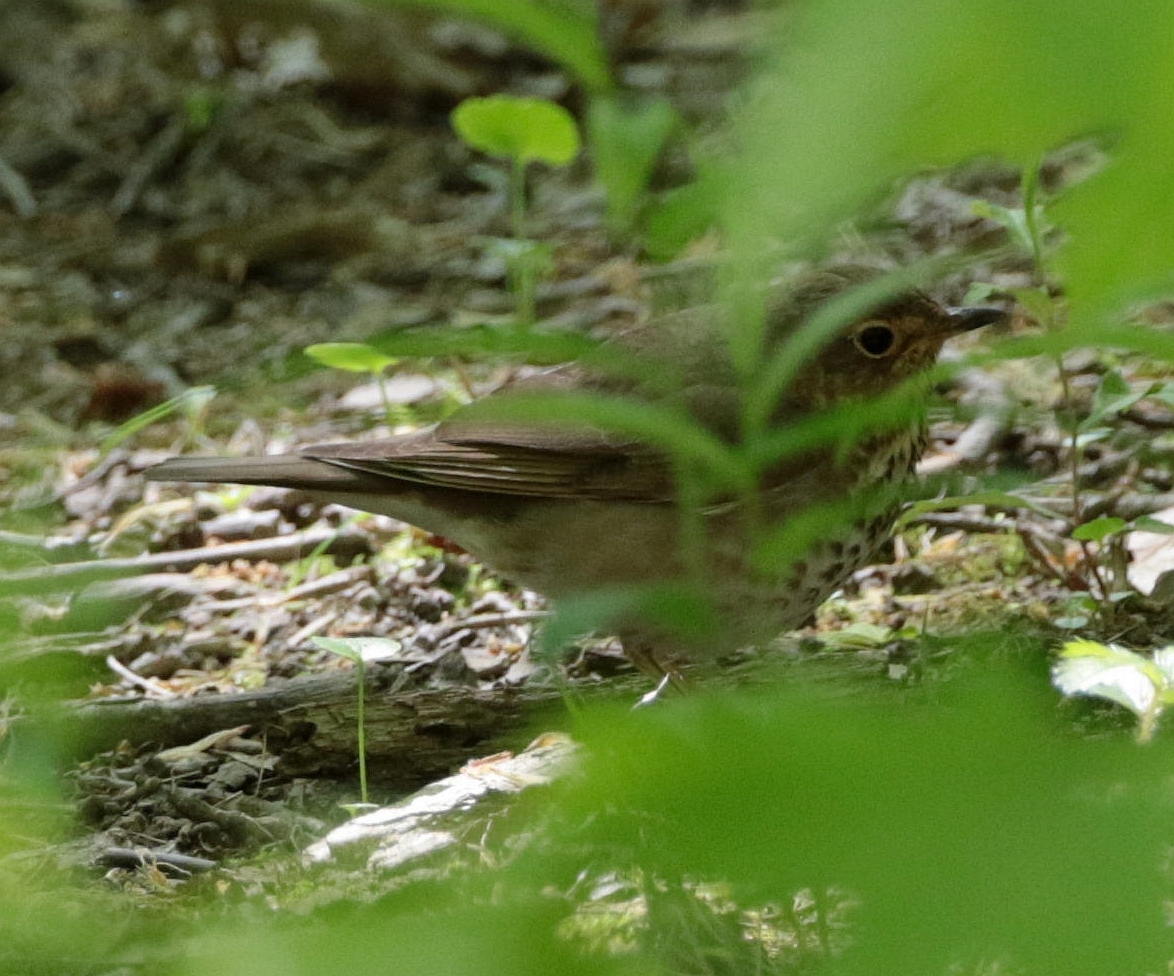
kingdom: Animalia
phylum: Chordata
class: Aves
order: Passeriformes
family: Turdidae
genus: Catharus
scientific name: Catharus ustulatus
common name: Swainson's thrush
